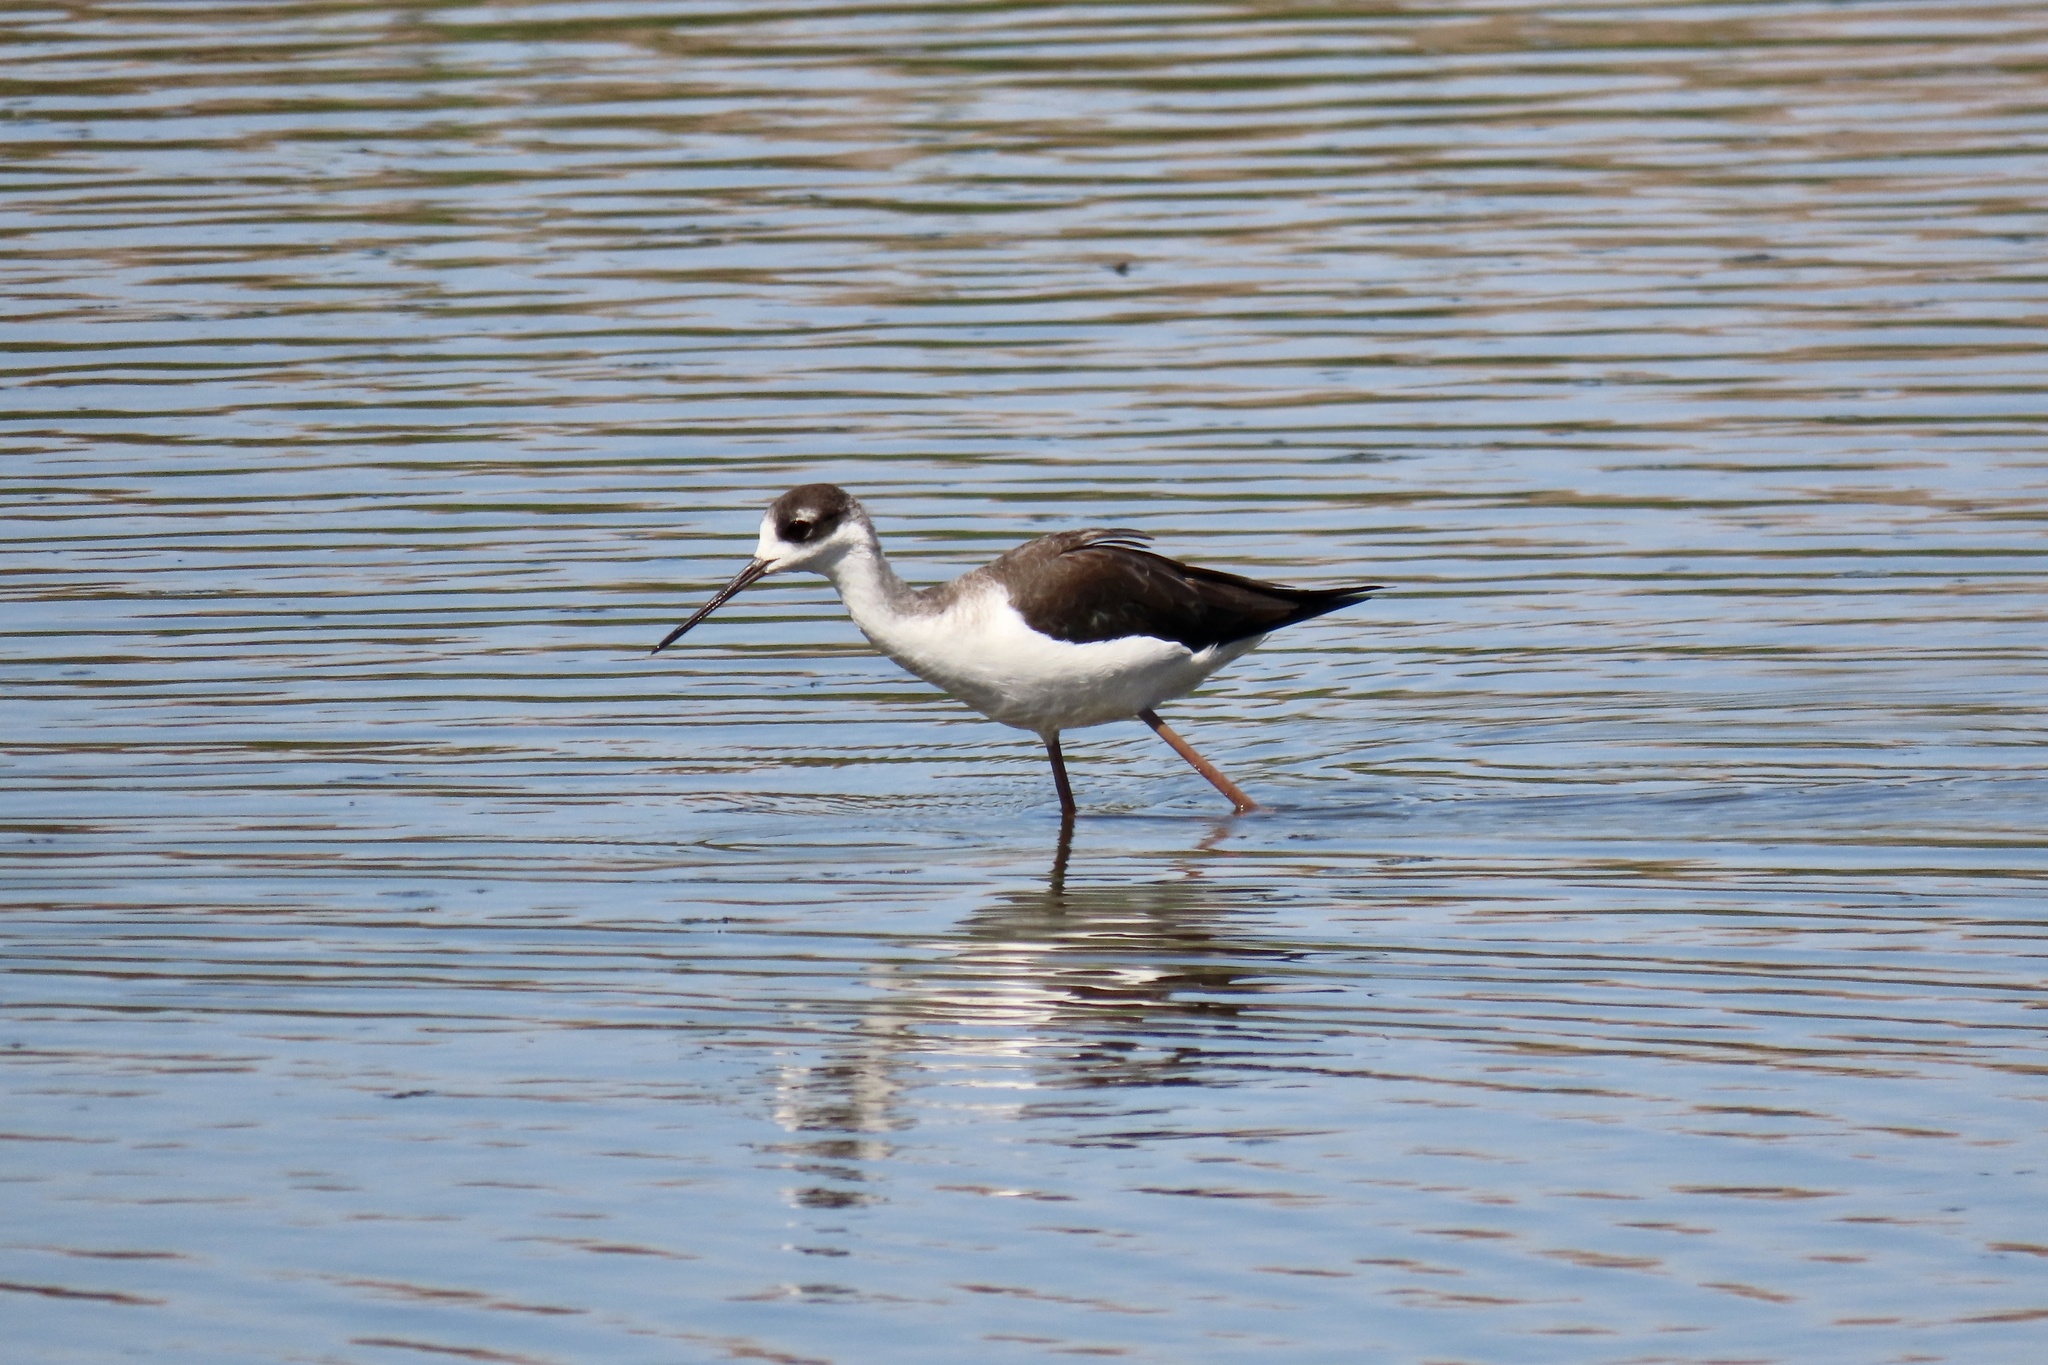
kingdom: Animalia
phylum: Chordata
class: Aves
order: Charadriiformes
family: Recurvirostridae
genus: Himantopus
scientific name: Himantopus mexicanus
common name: Black-necked stilt
